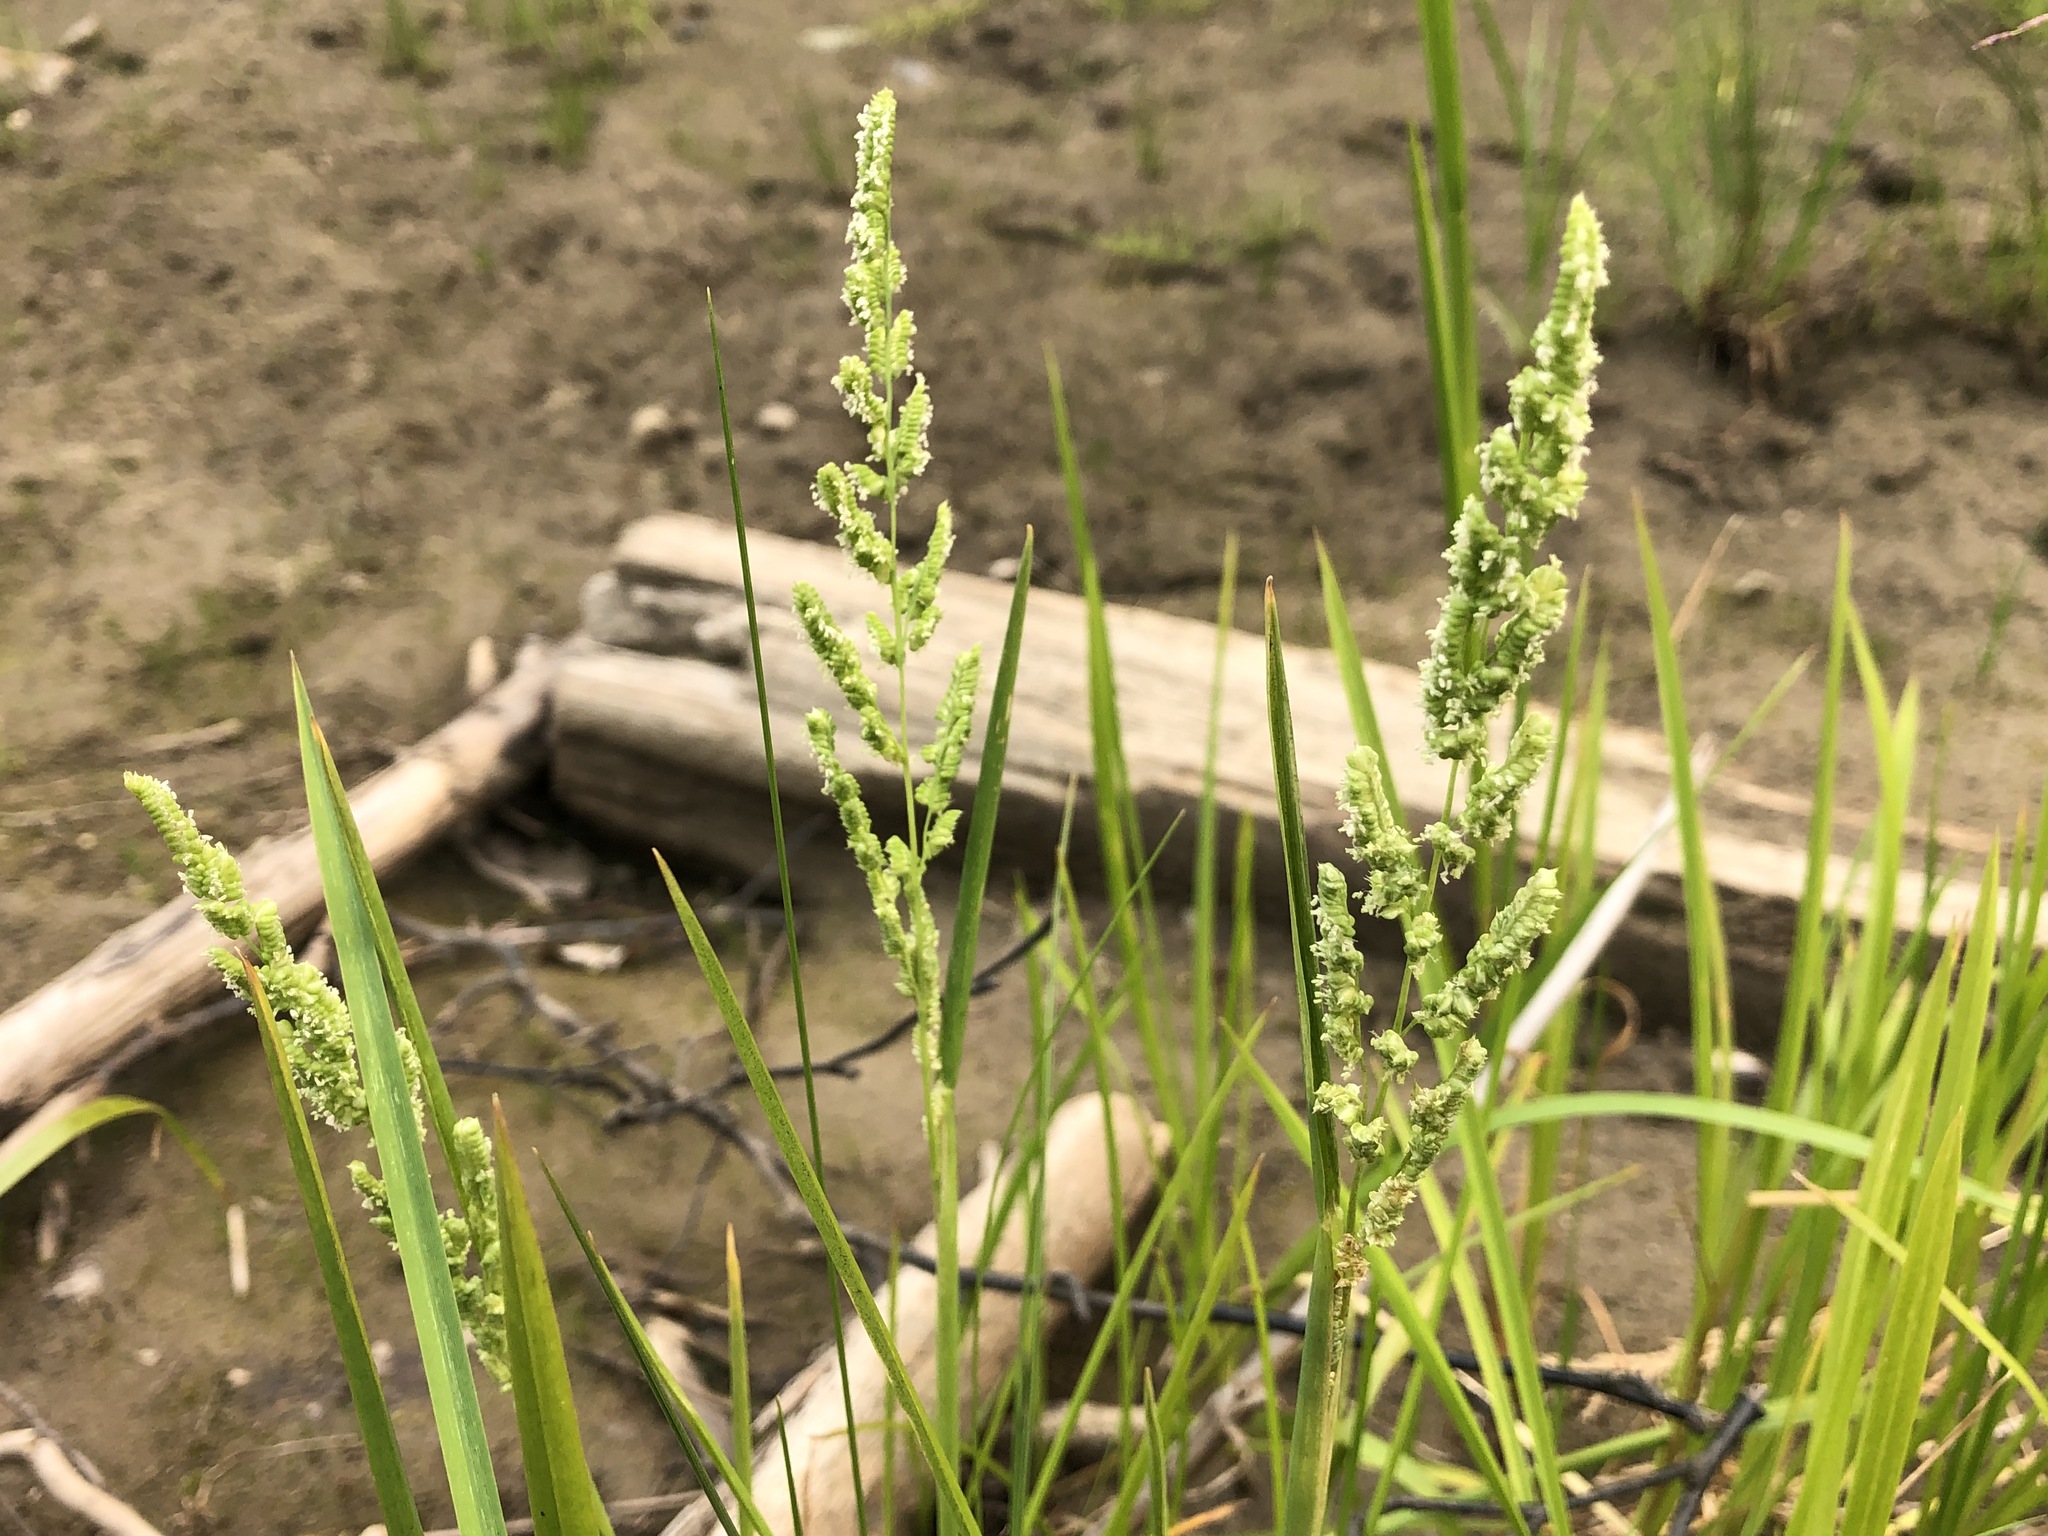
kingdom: Plantae
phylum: Tracheophyta
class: Liliopsida
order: Poales
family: Poaceae
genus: Beckmannia
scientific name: Beckmannia syzigachne
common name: American slough-grass
